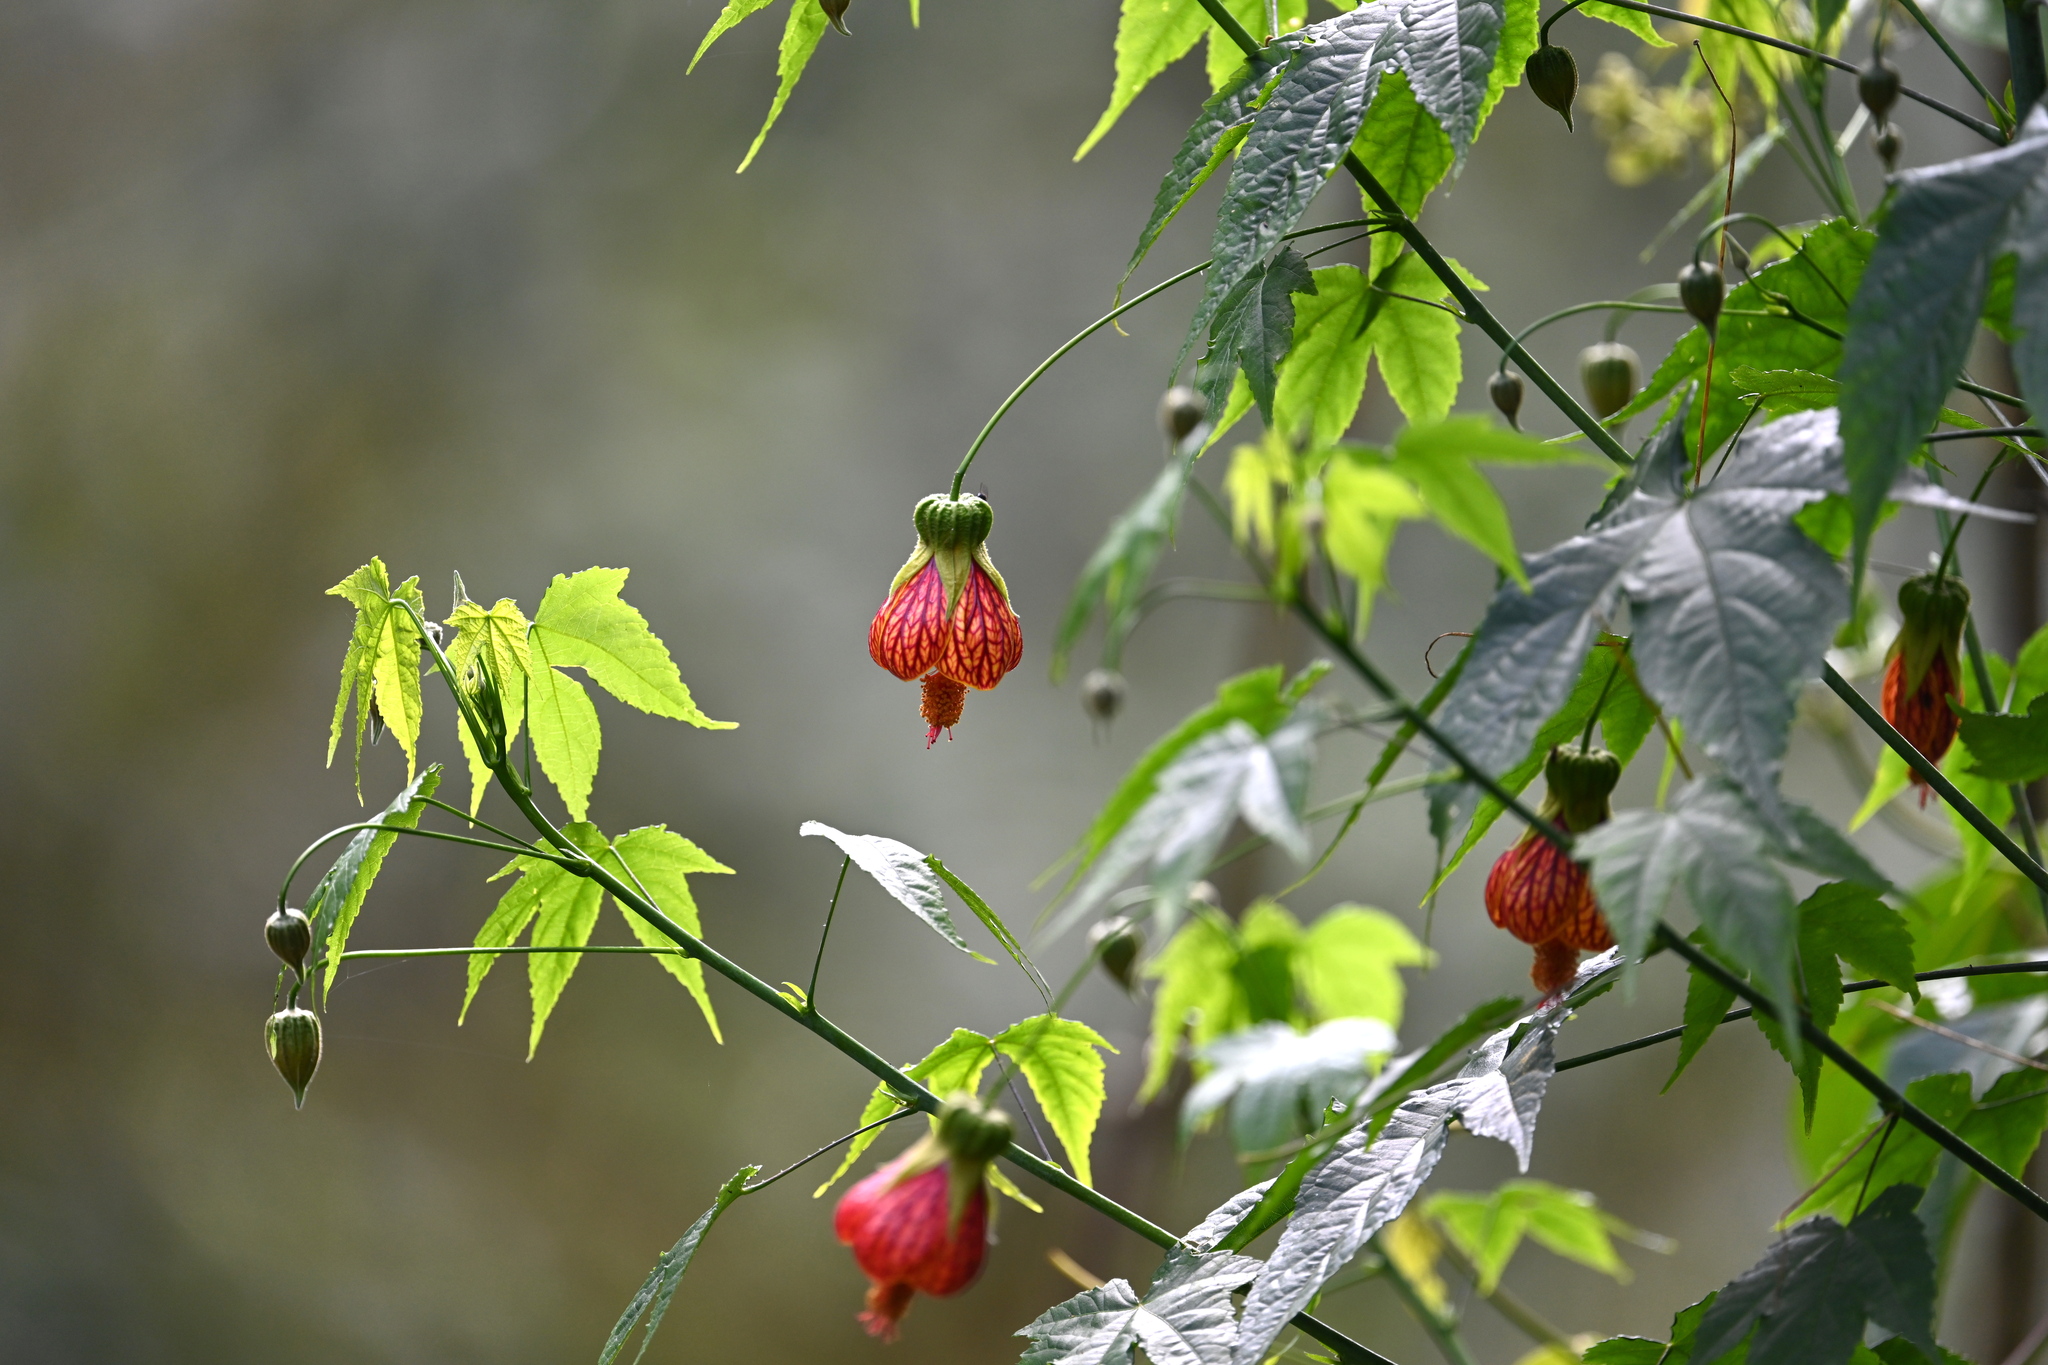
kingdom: Plantae
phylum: Tracheophyta
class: Magnoliopsida
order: Malvales
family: Malvaceae
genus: Callianthe
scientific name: Callianthe picta
